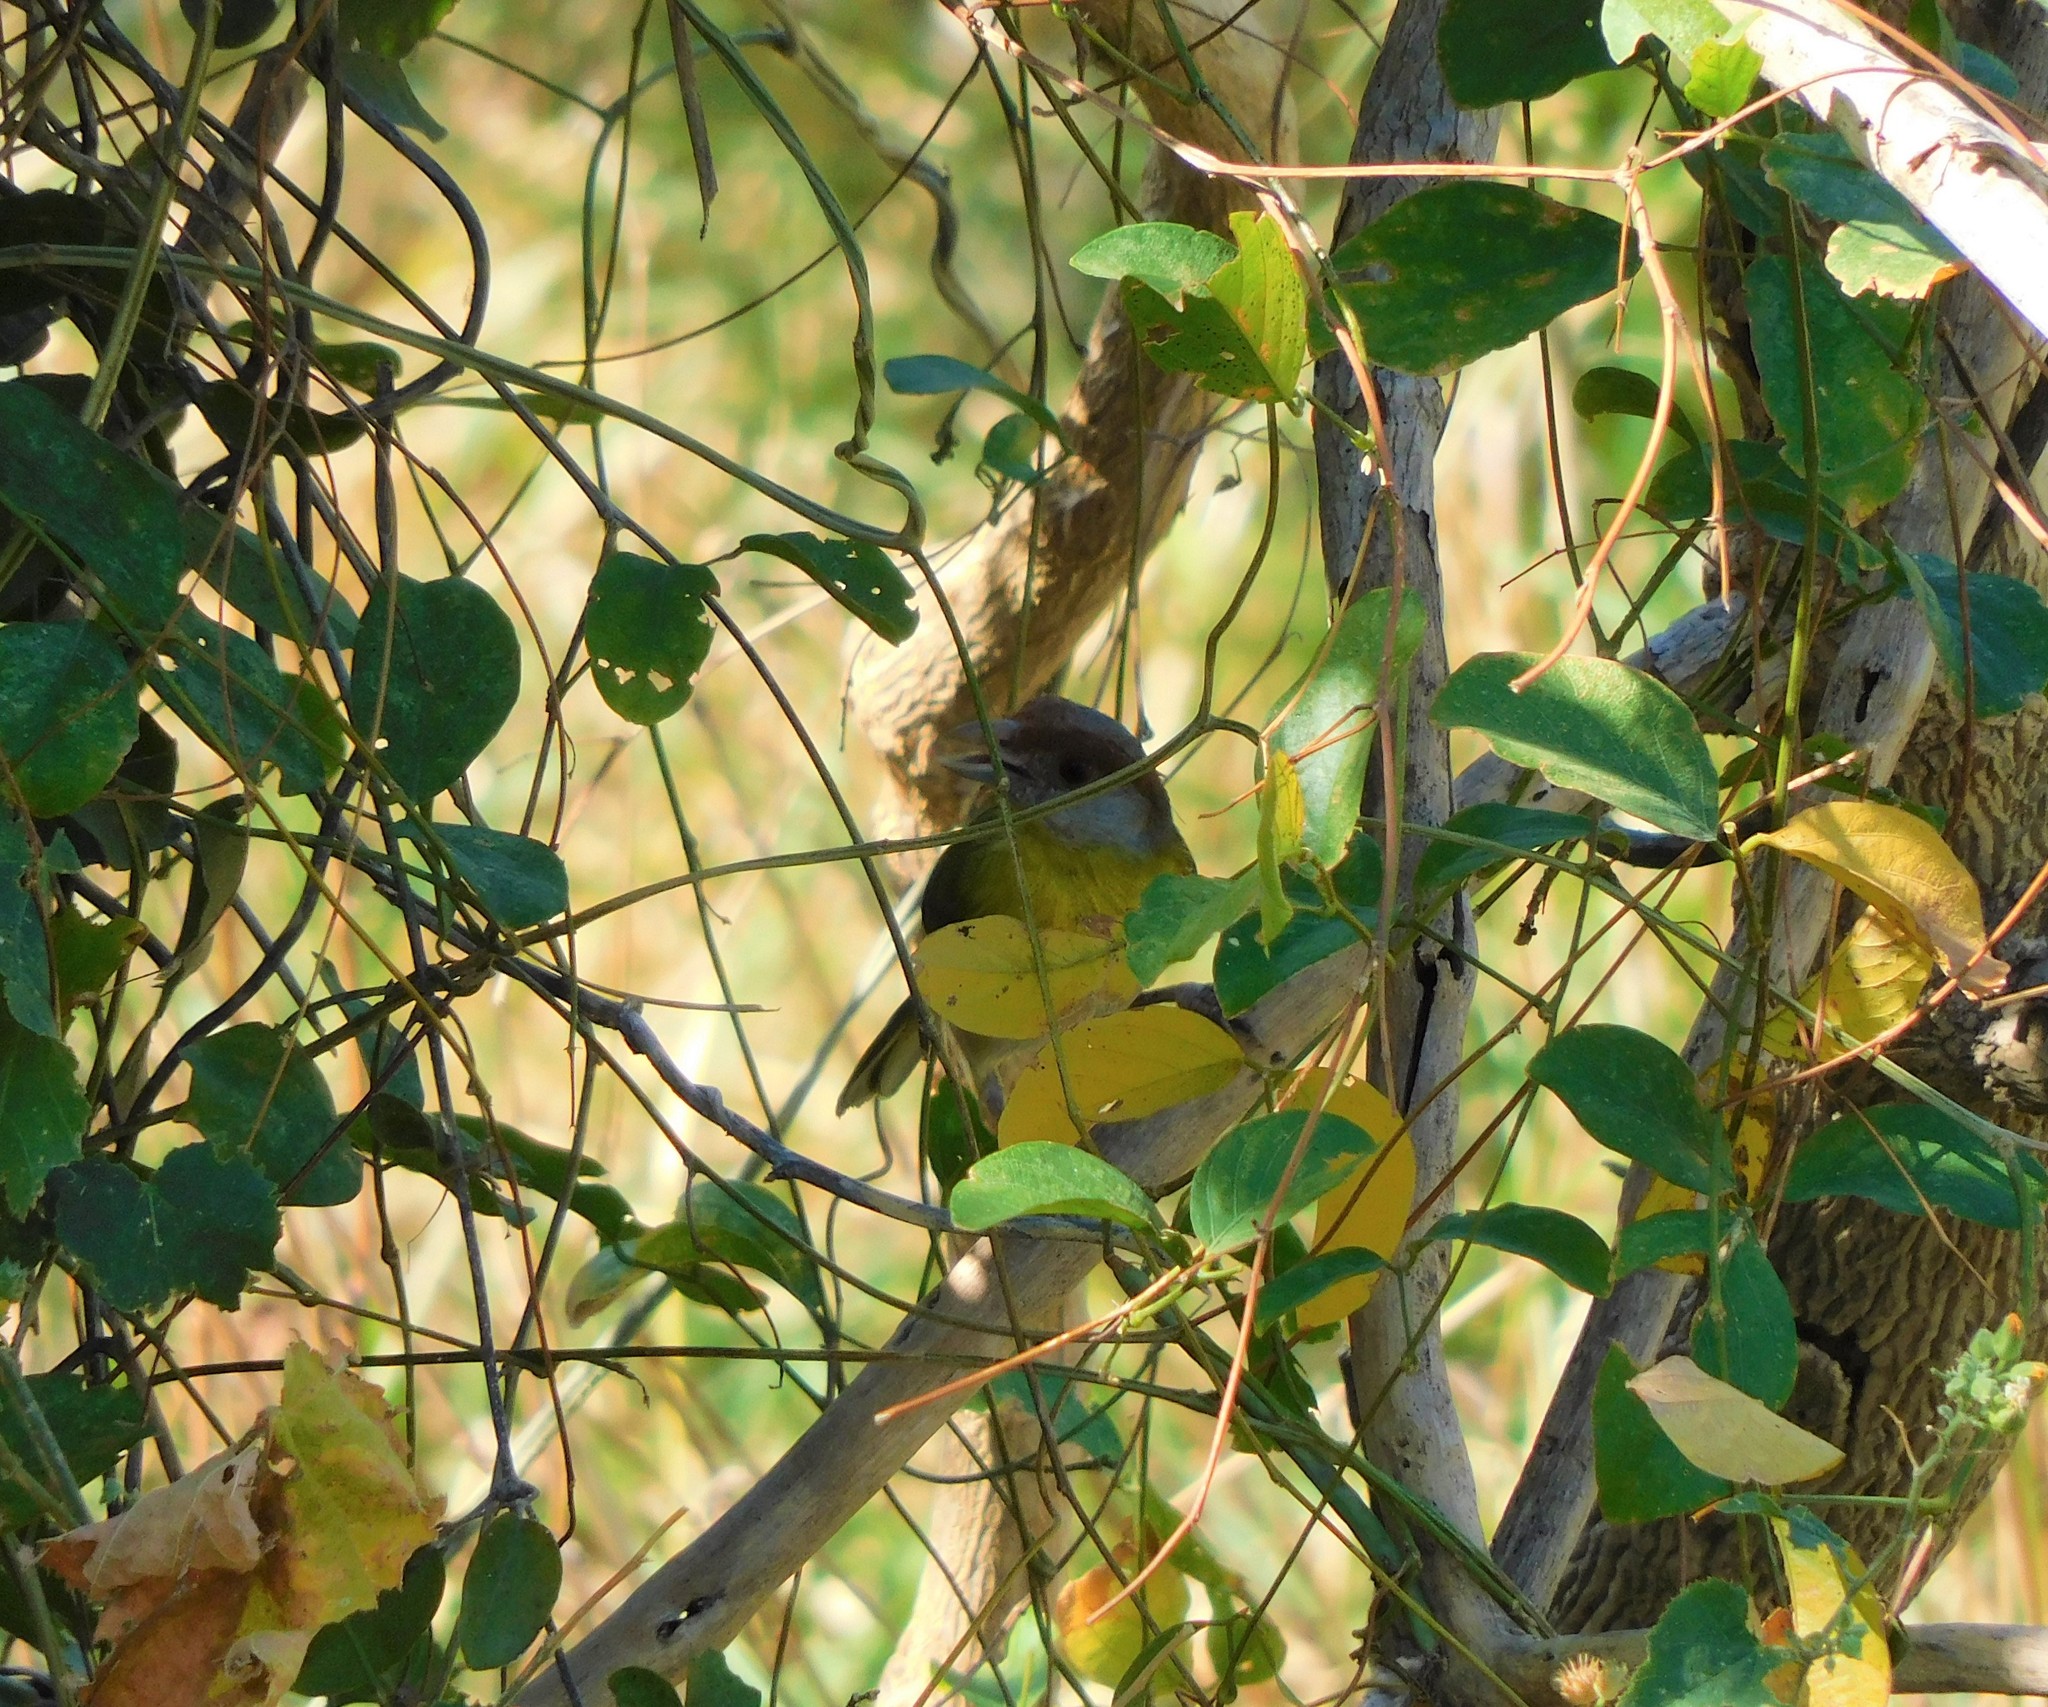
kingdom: Animalia
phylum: Chordata
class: Aves
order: Passeriformes
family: Vireonidae
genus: Cyclarhis
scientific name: Cyclarhis gujanensis
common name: Rufous-browed peppershrike
